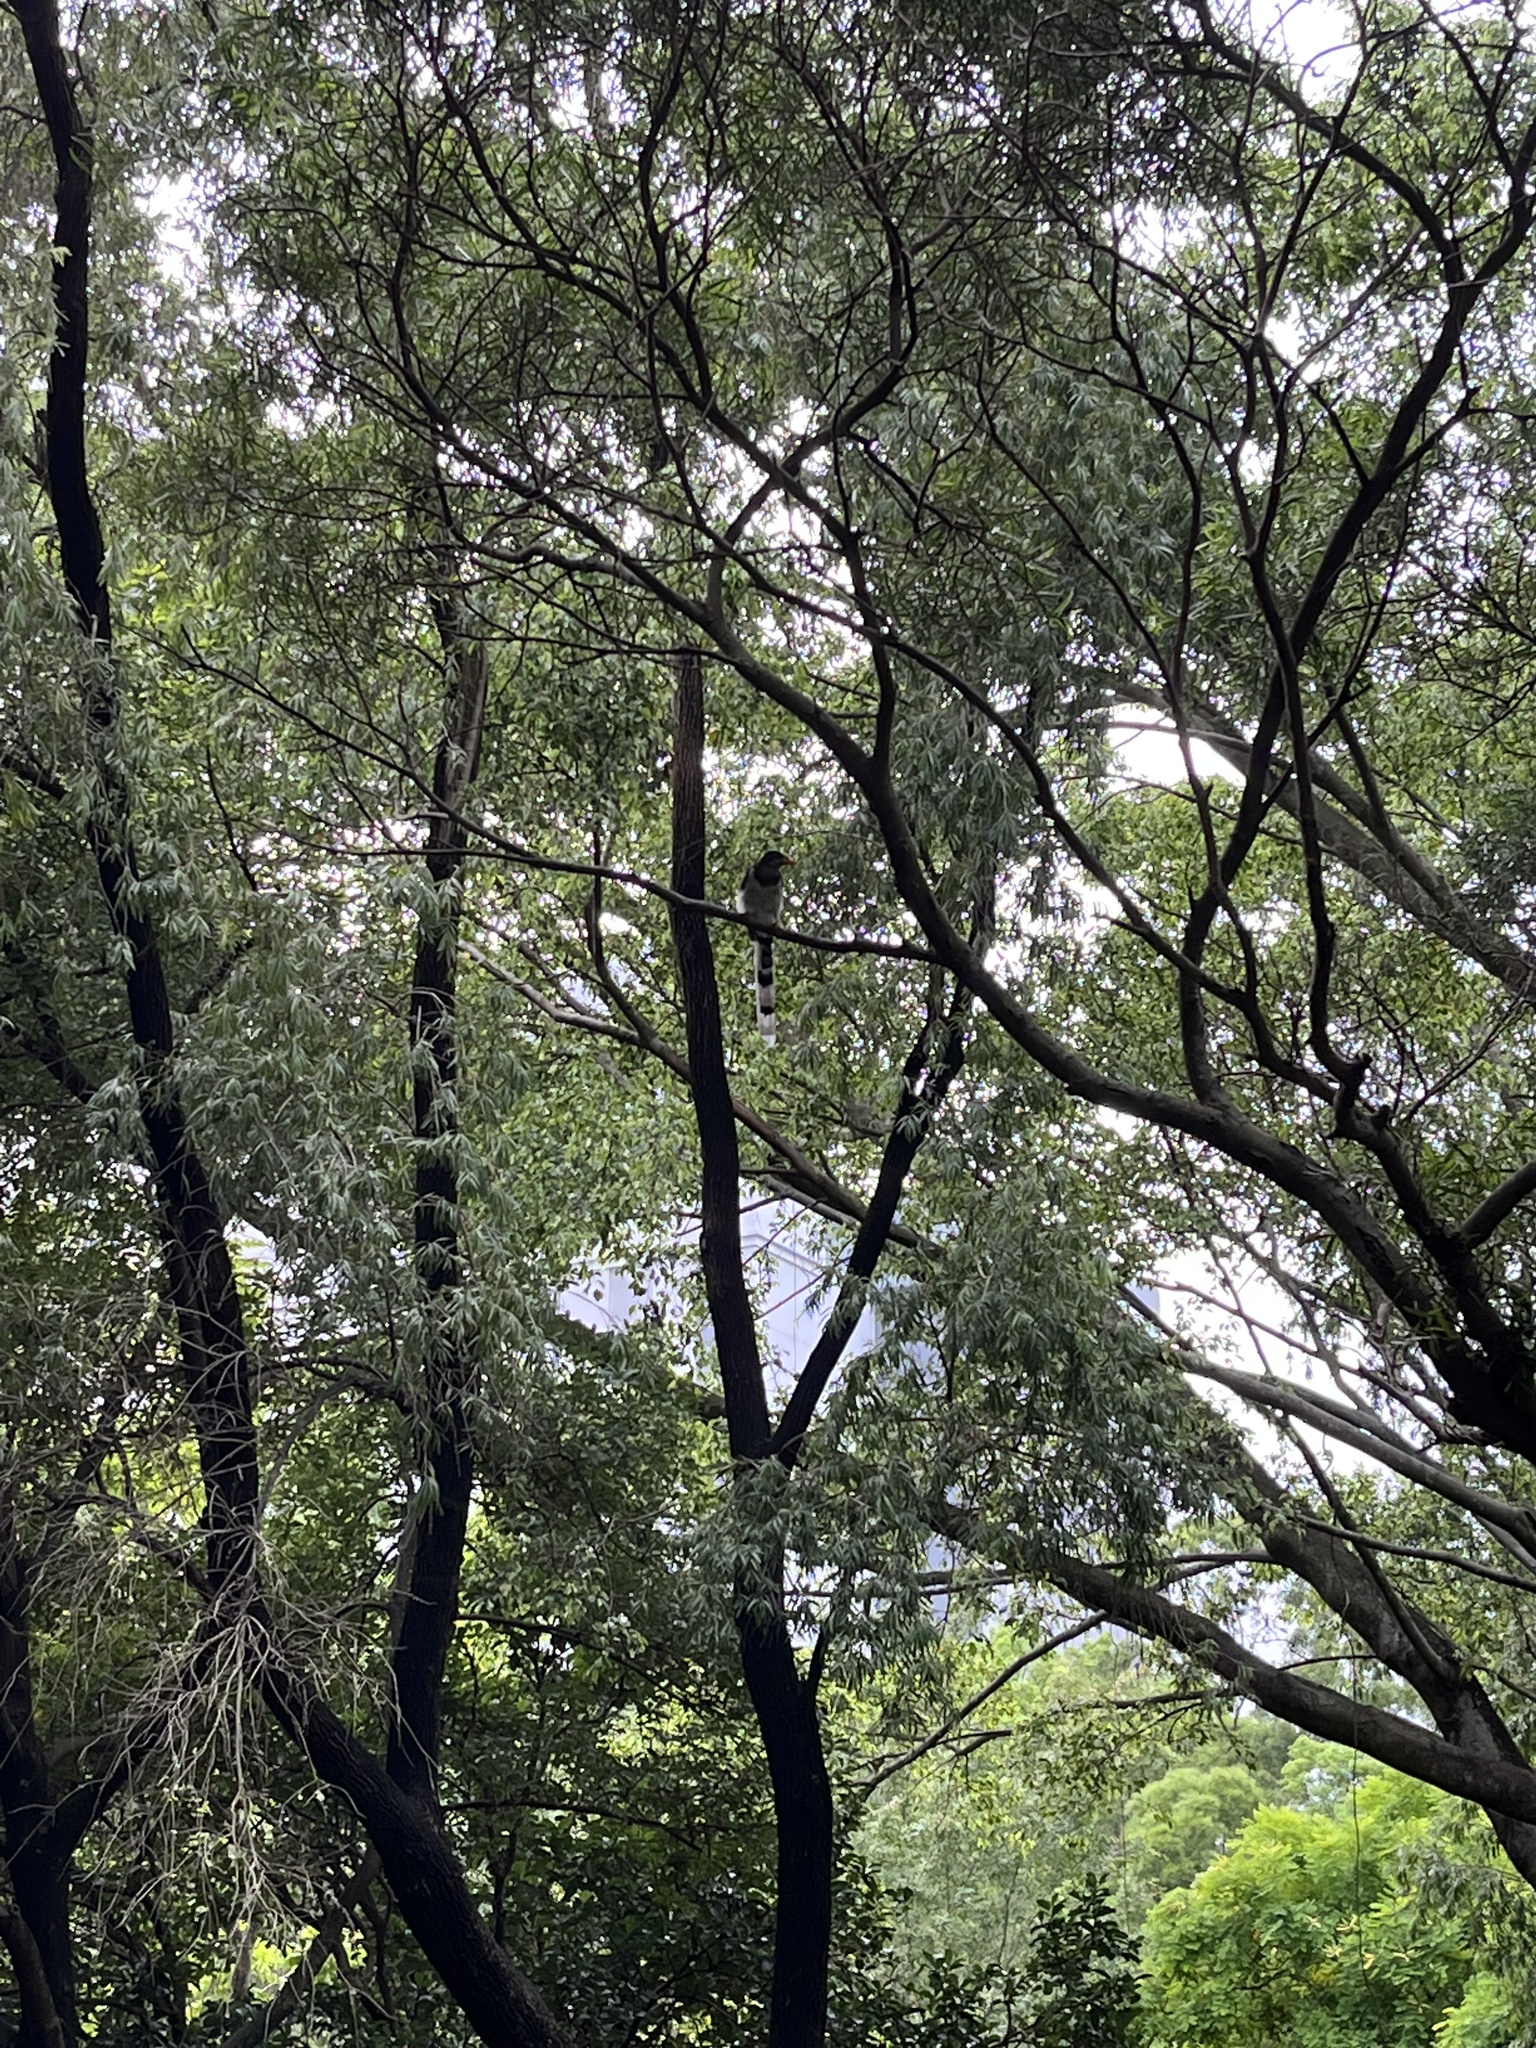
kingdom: Animalia
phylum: Chordata
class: Aves
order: Passeriformes
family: Corvidae
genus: Urocissa
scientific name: Urocissa erythroryncha
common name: Red-billed blue magpie
